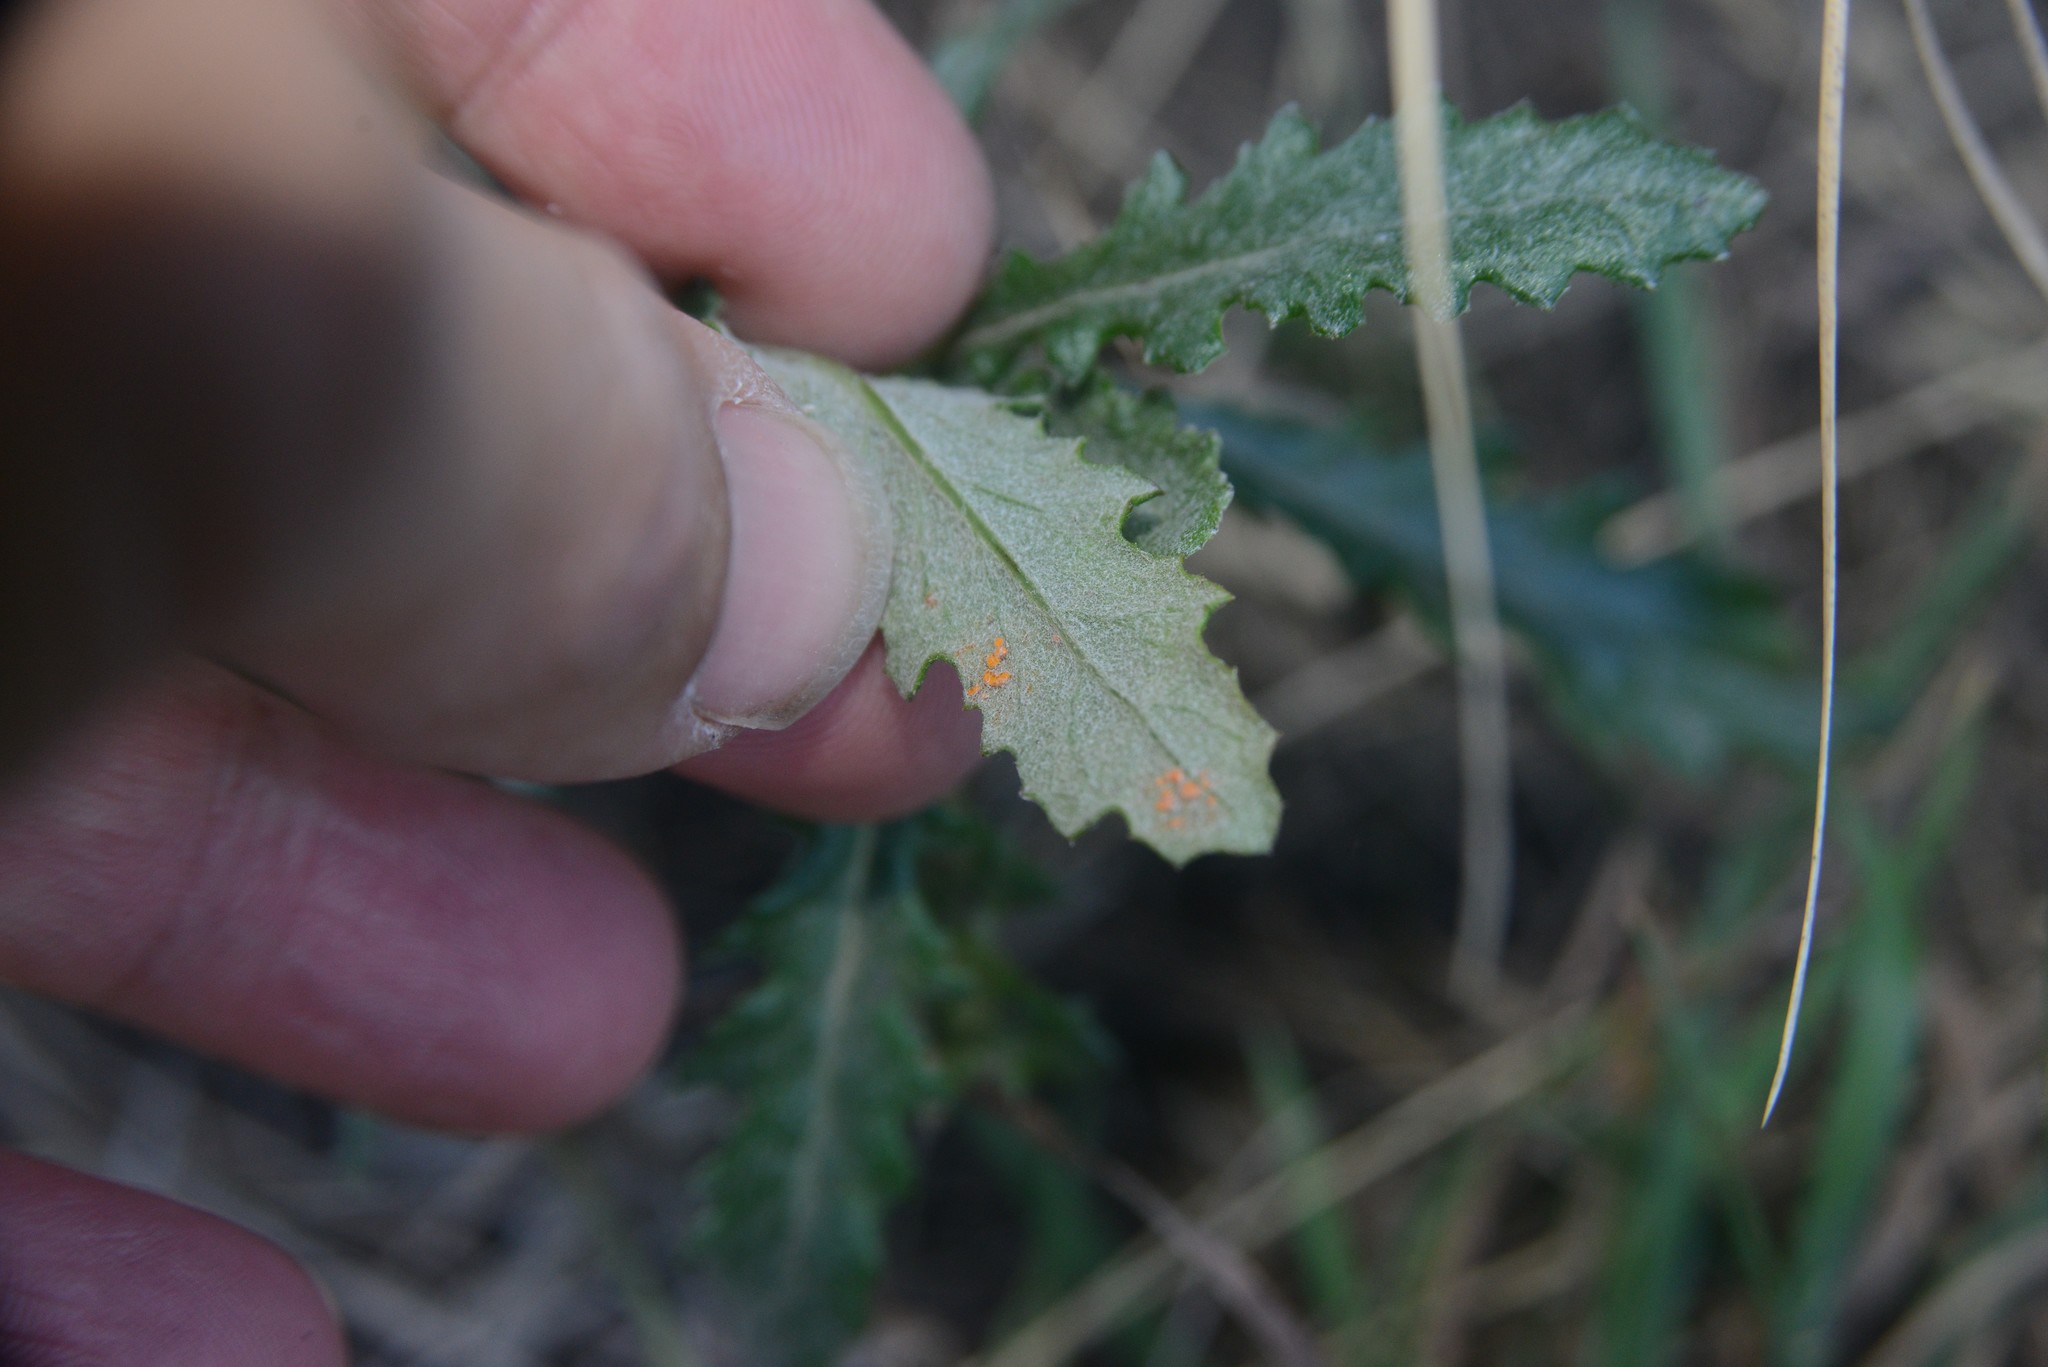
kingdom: Fungi
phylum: Basidiomycota
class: Pucciniomycetes
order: Pucciniales
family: Coleosporiaceae
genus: Coleosporium
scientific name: Coleosporium tussilaginis
